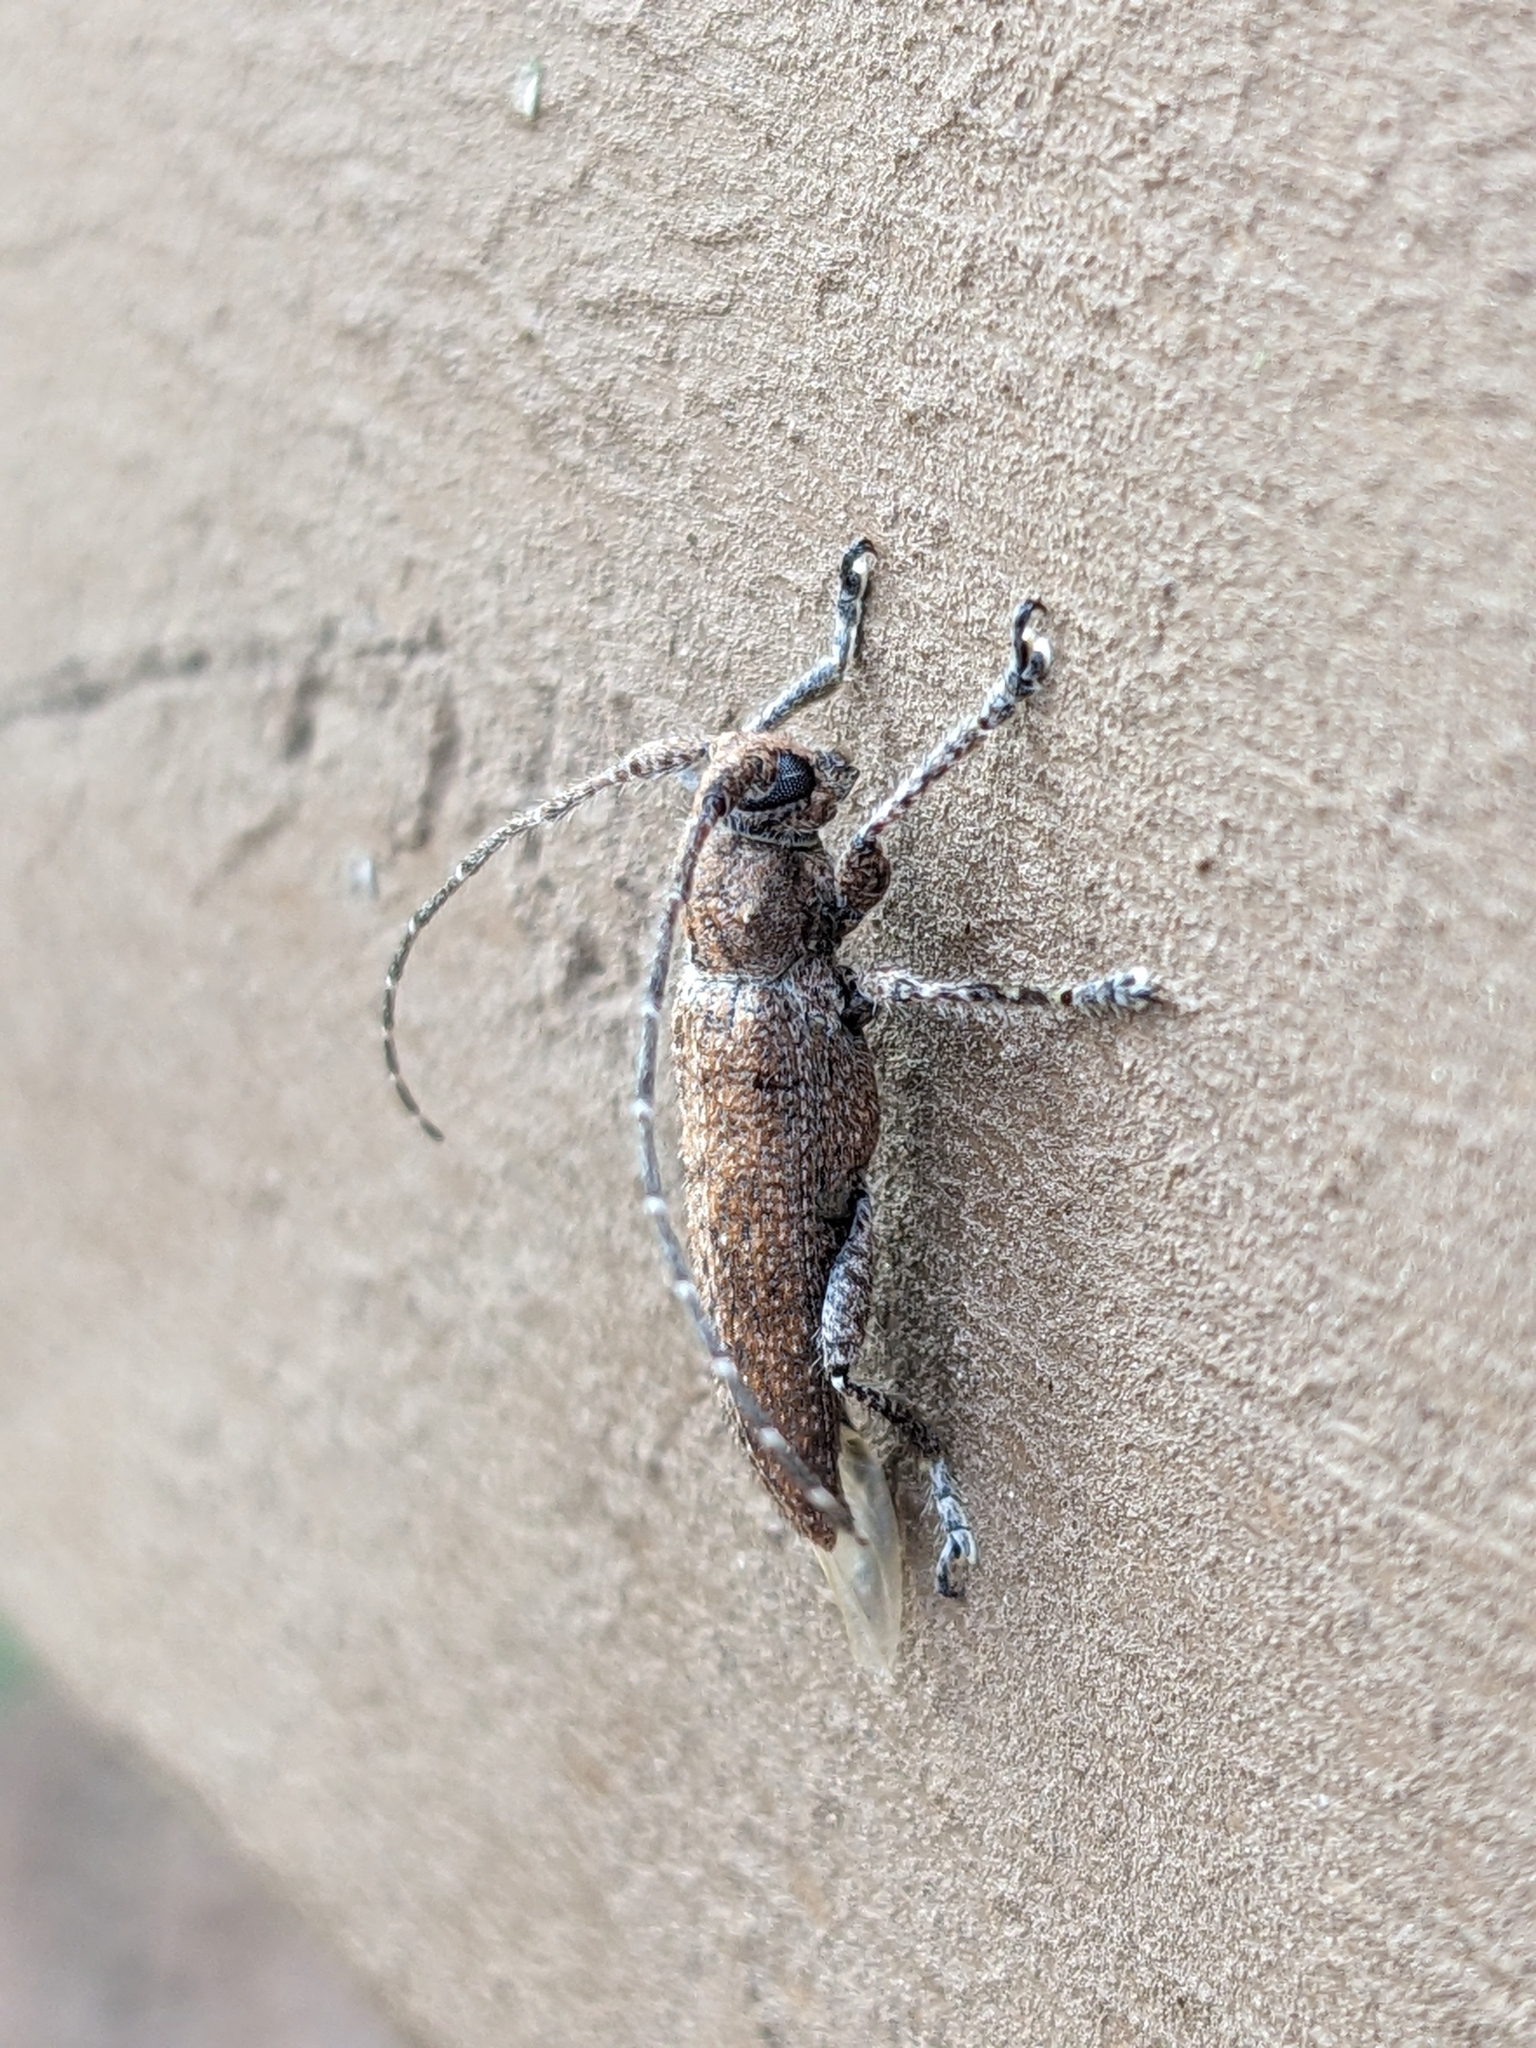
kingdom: Animalia
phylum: Arthropoda
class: Insecta
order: Coleoptera
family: Cerambycidae
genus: Ataxia
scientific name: Ataxia crypta
